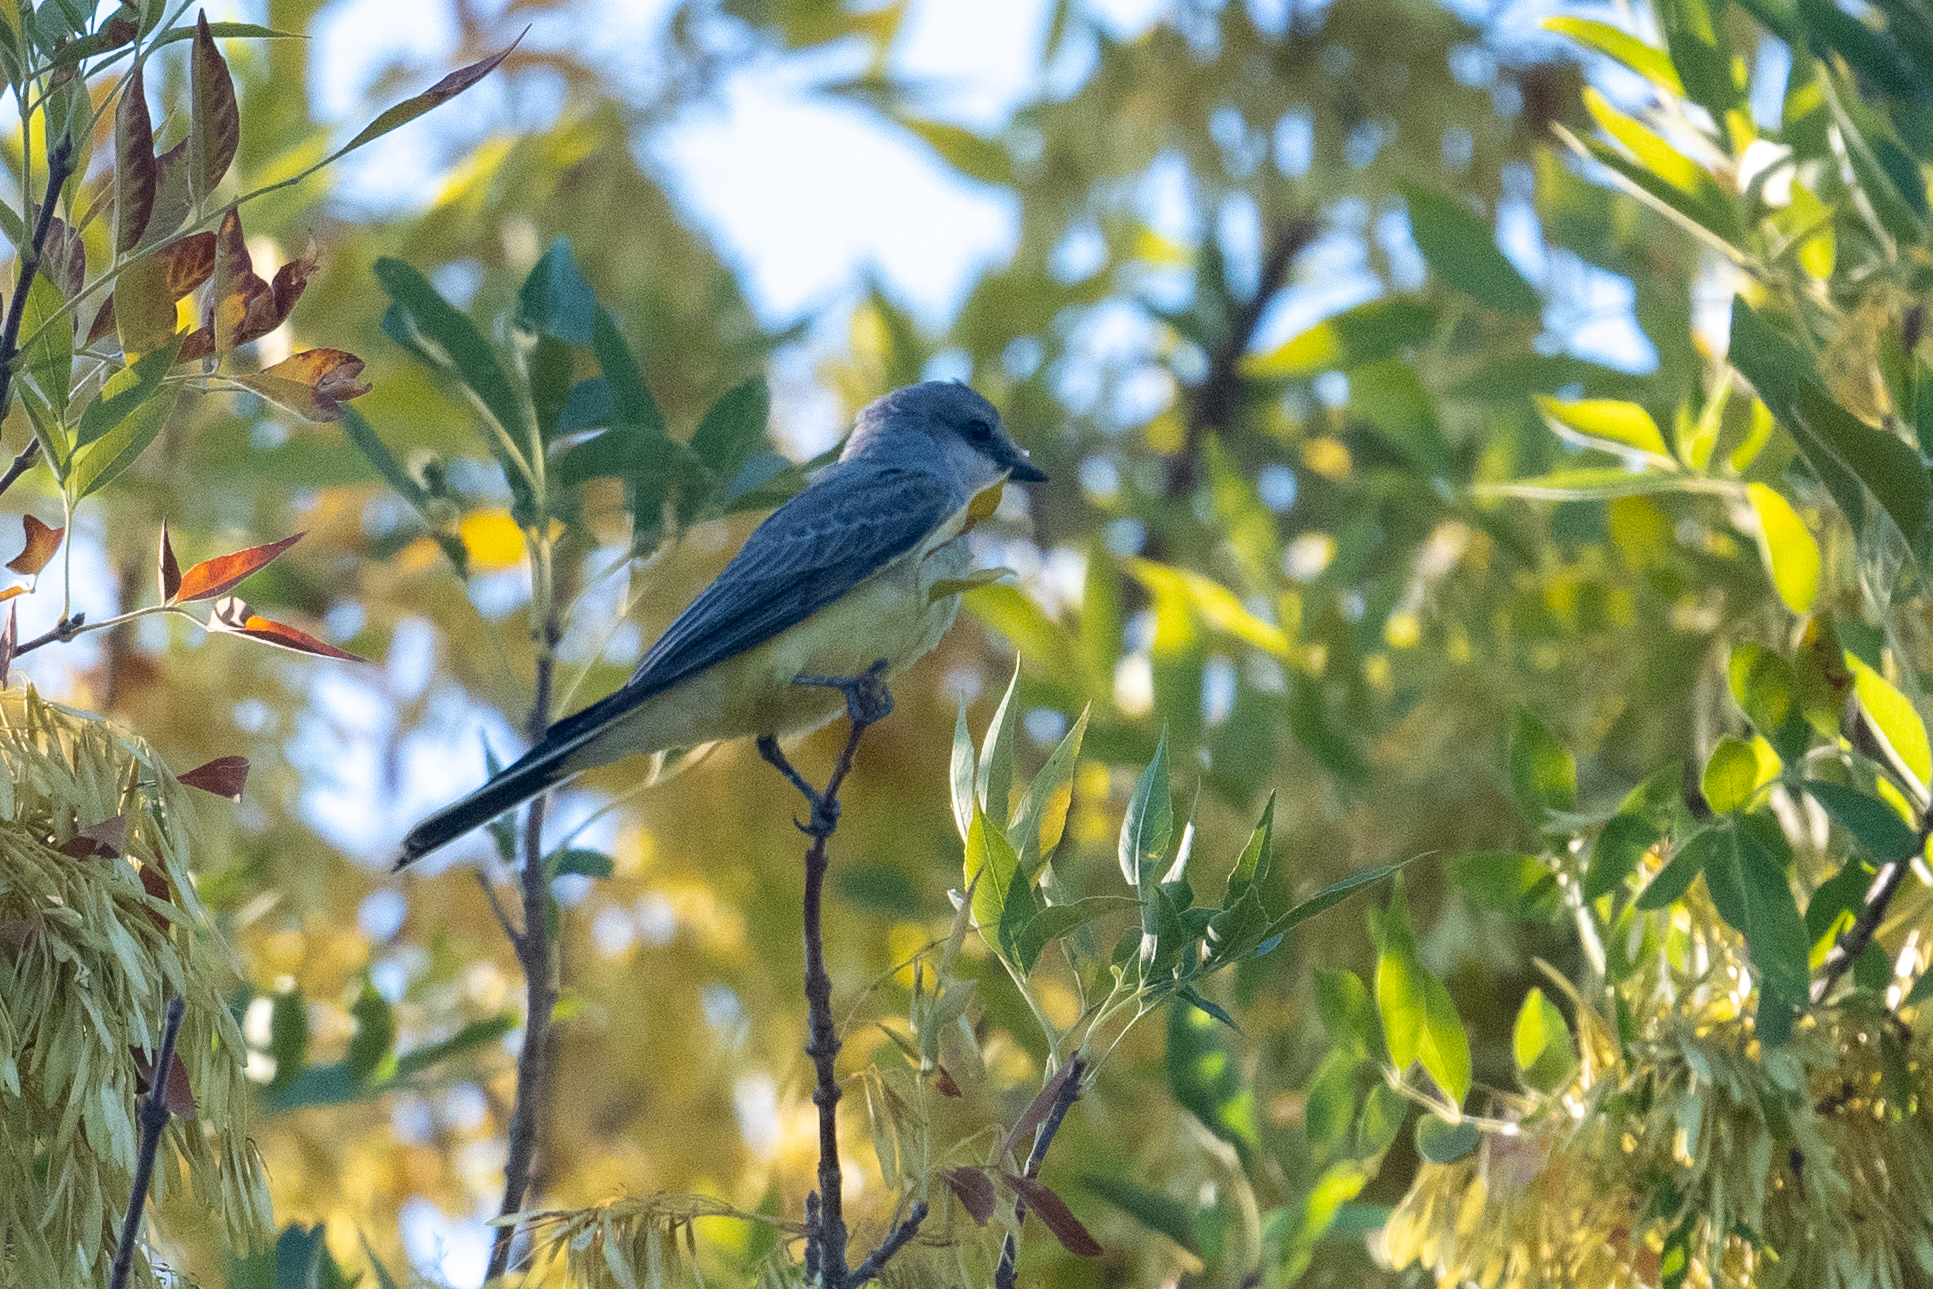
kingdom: Animalia
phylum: Chordata
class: Aves
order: Passeriformes
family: Tyrannidae
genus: Tyrannus
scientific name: Tyrannus verticalis
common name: Western kingbird
